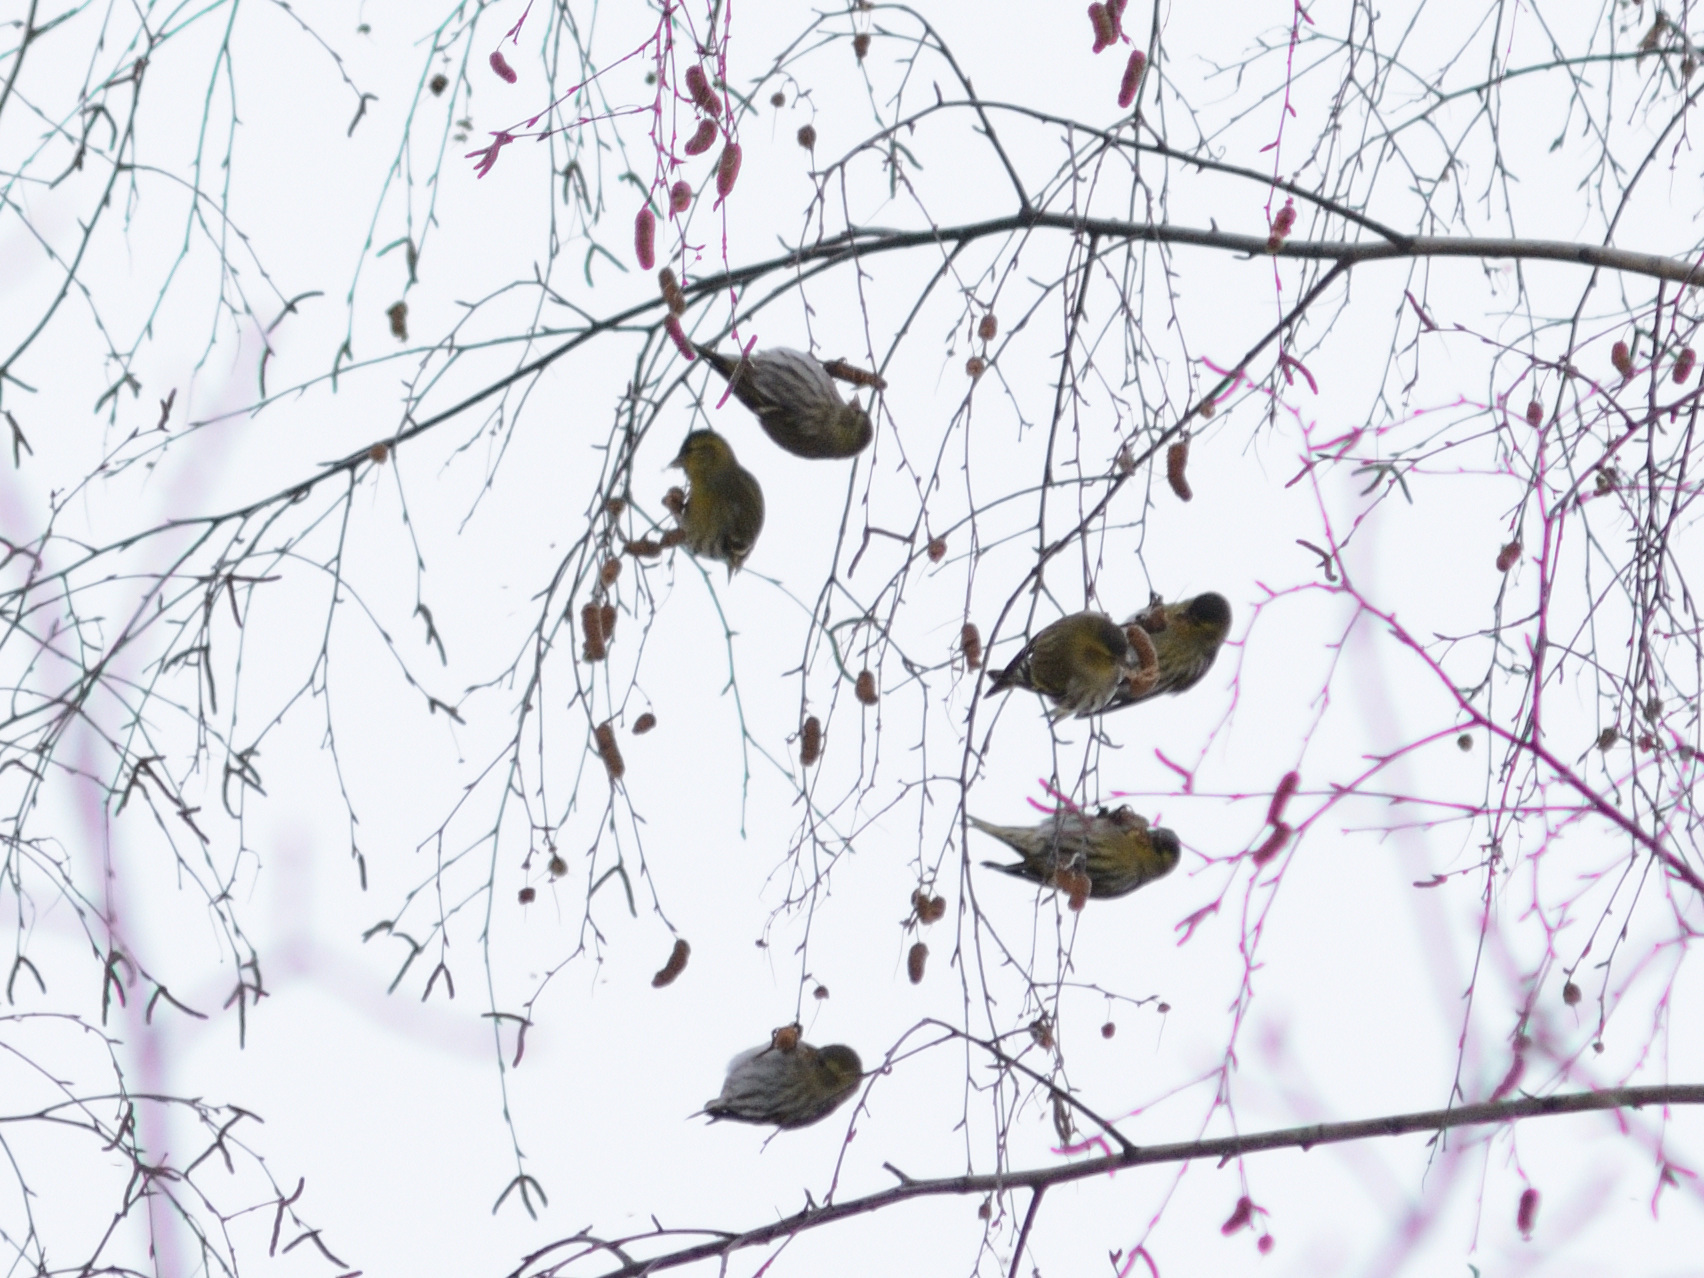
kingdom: Animalia
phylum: Chordata
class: Aves
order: Passeriformes
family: Fringillidae
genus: Spinus
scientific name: Spinus spinus
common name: Eurasian siskin
